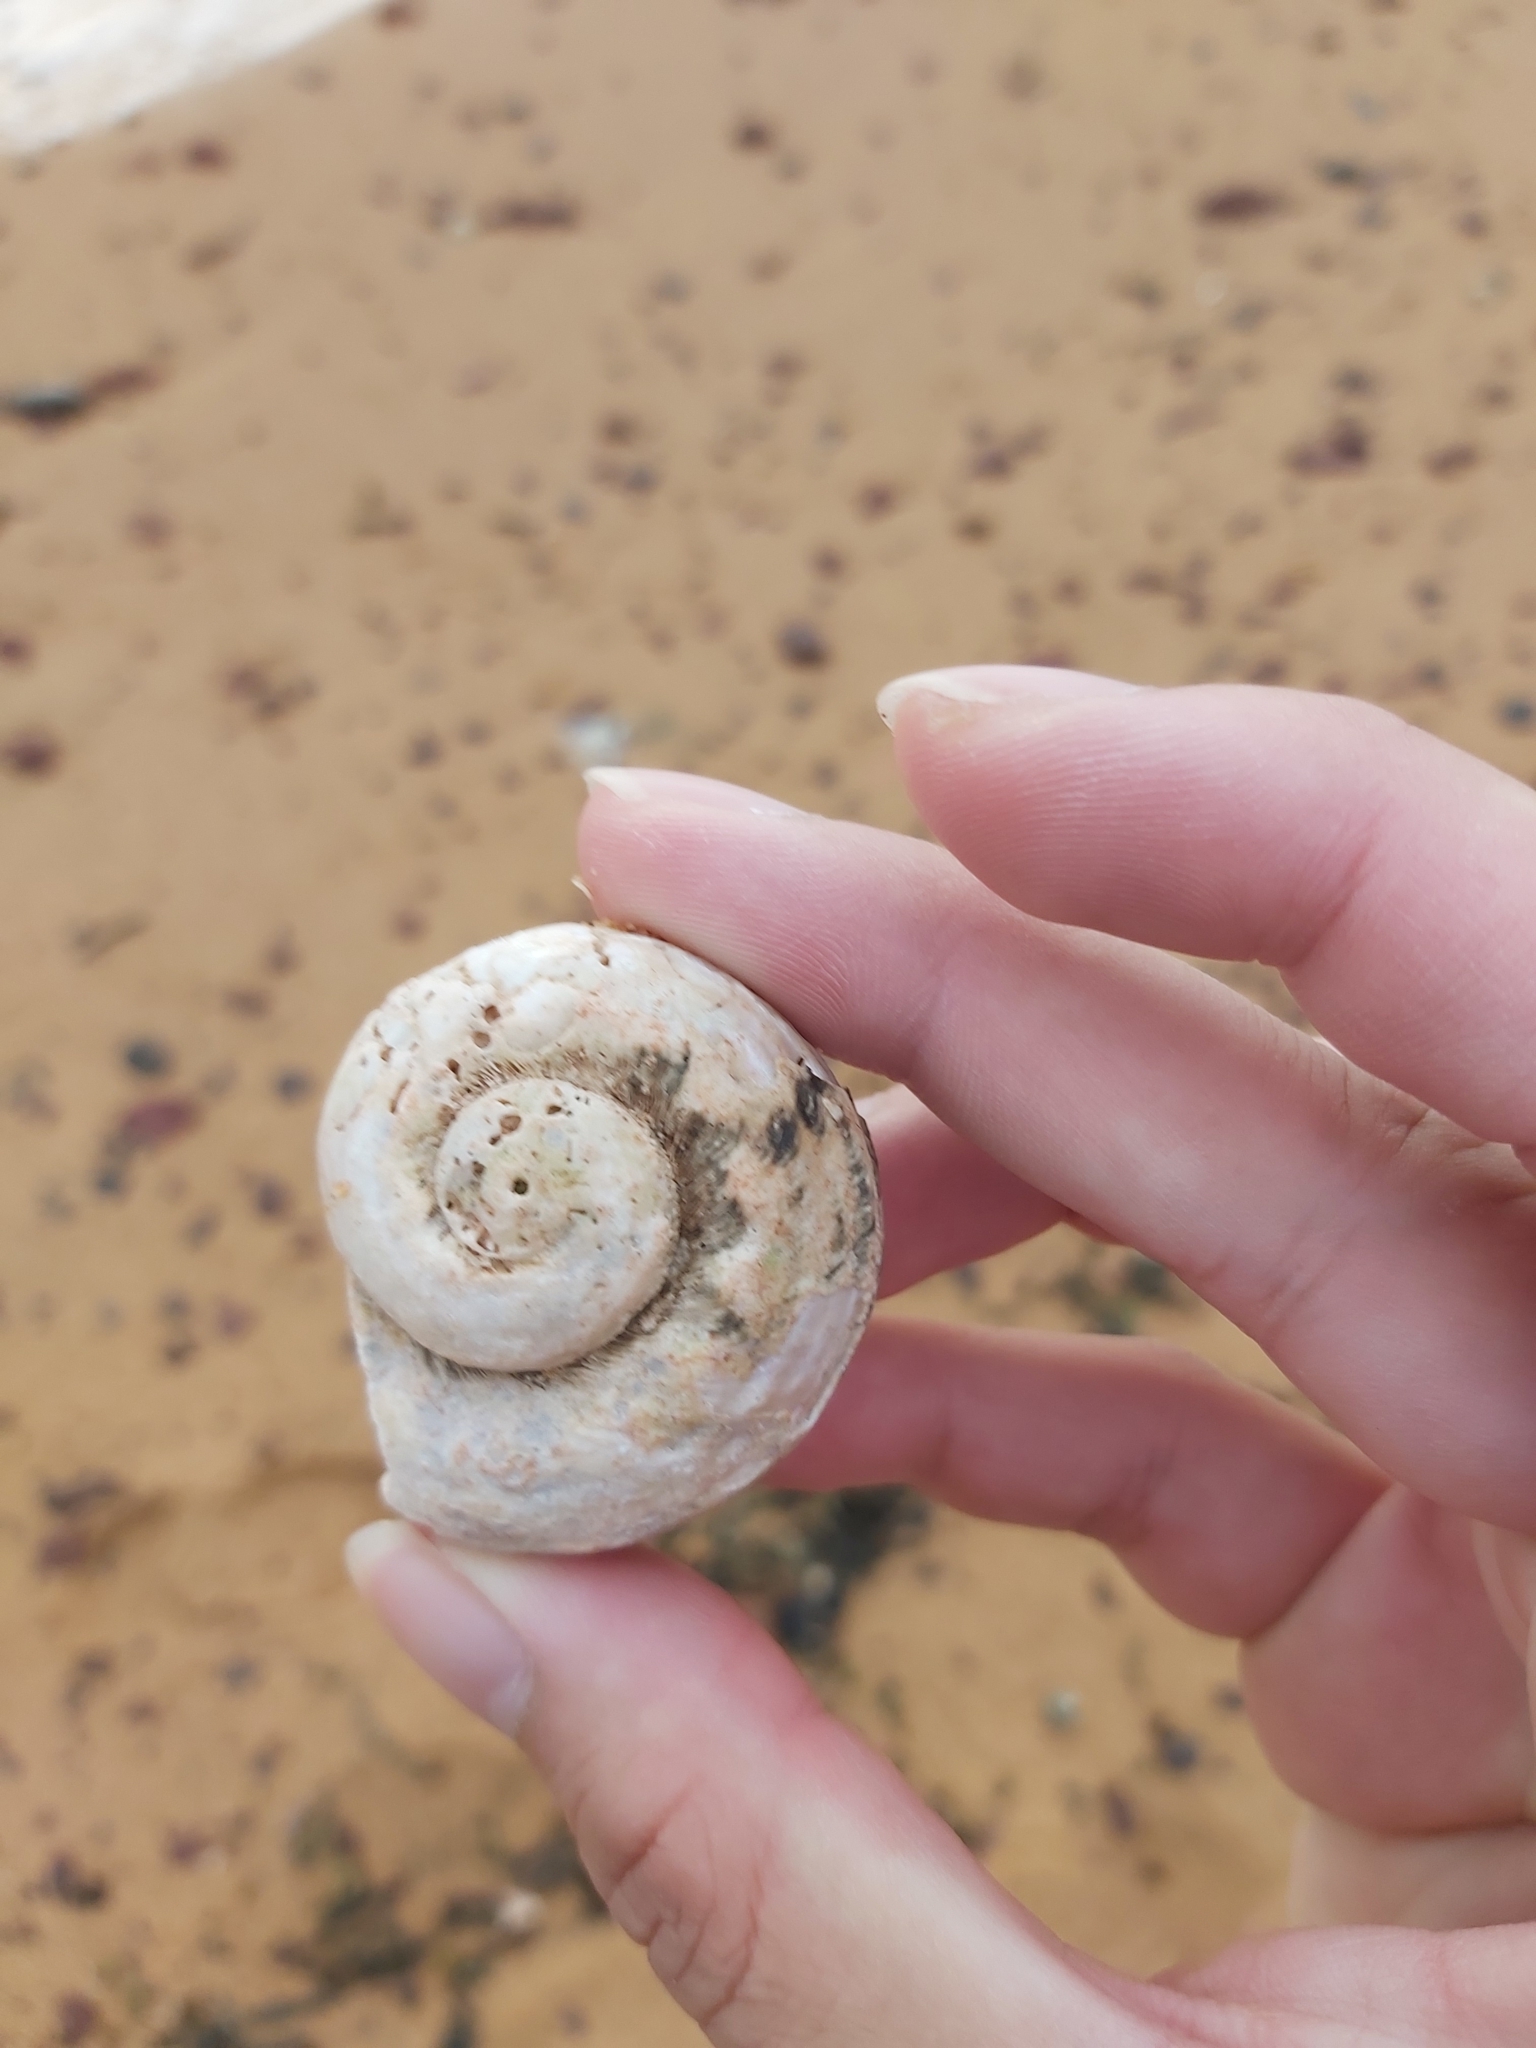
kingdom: Animalia
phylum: Mollusca
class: Gastropoda
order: Trochida
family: Turbinidae
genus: Lunella
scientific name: Lunella torquata
